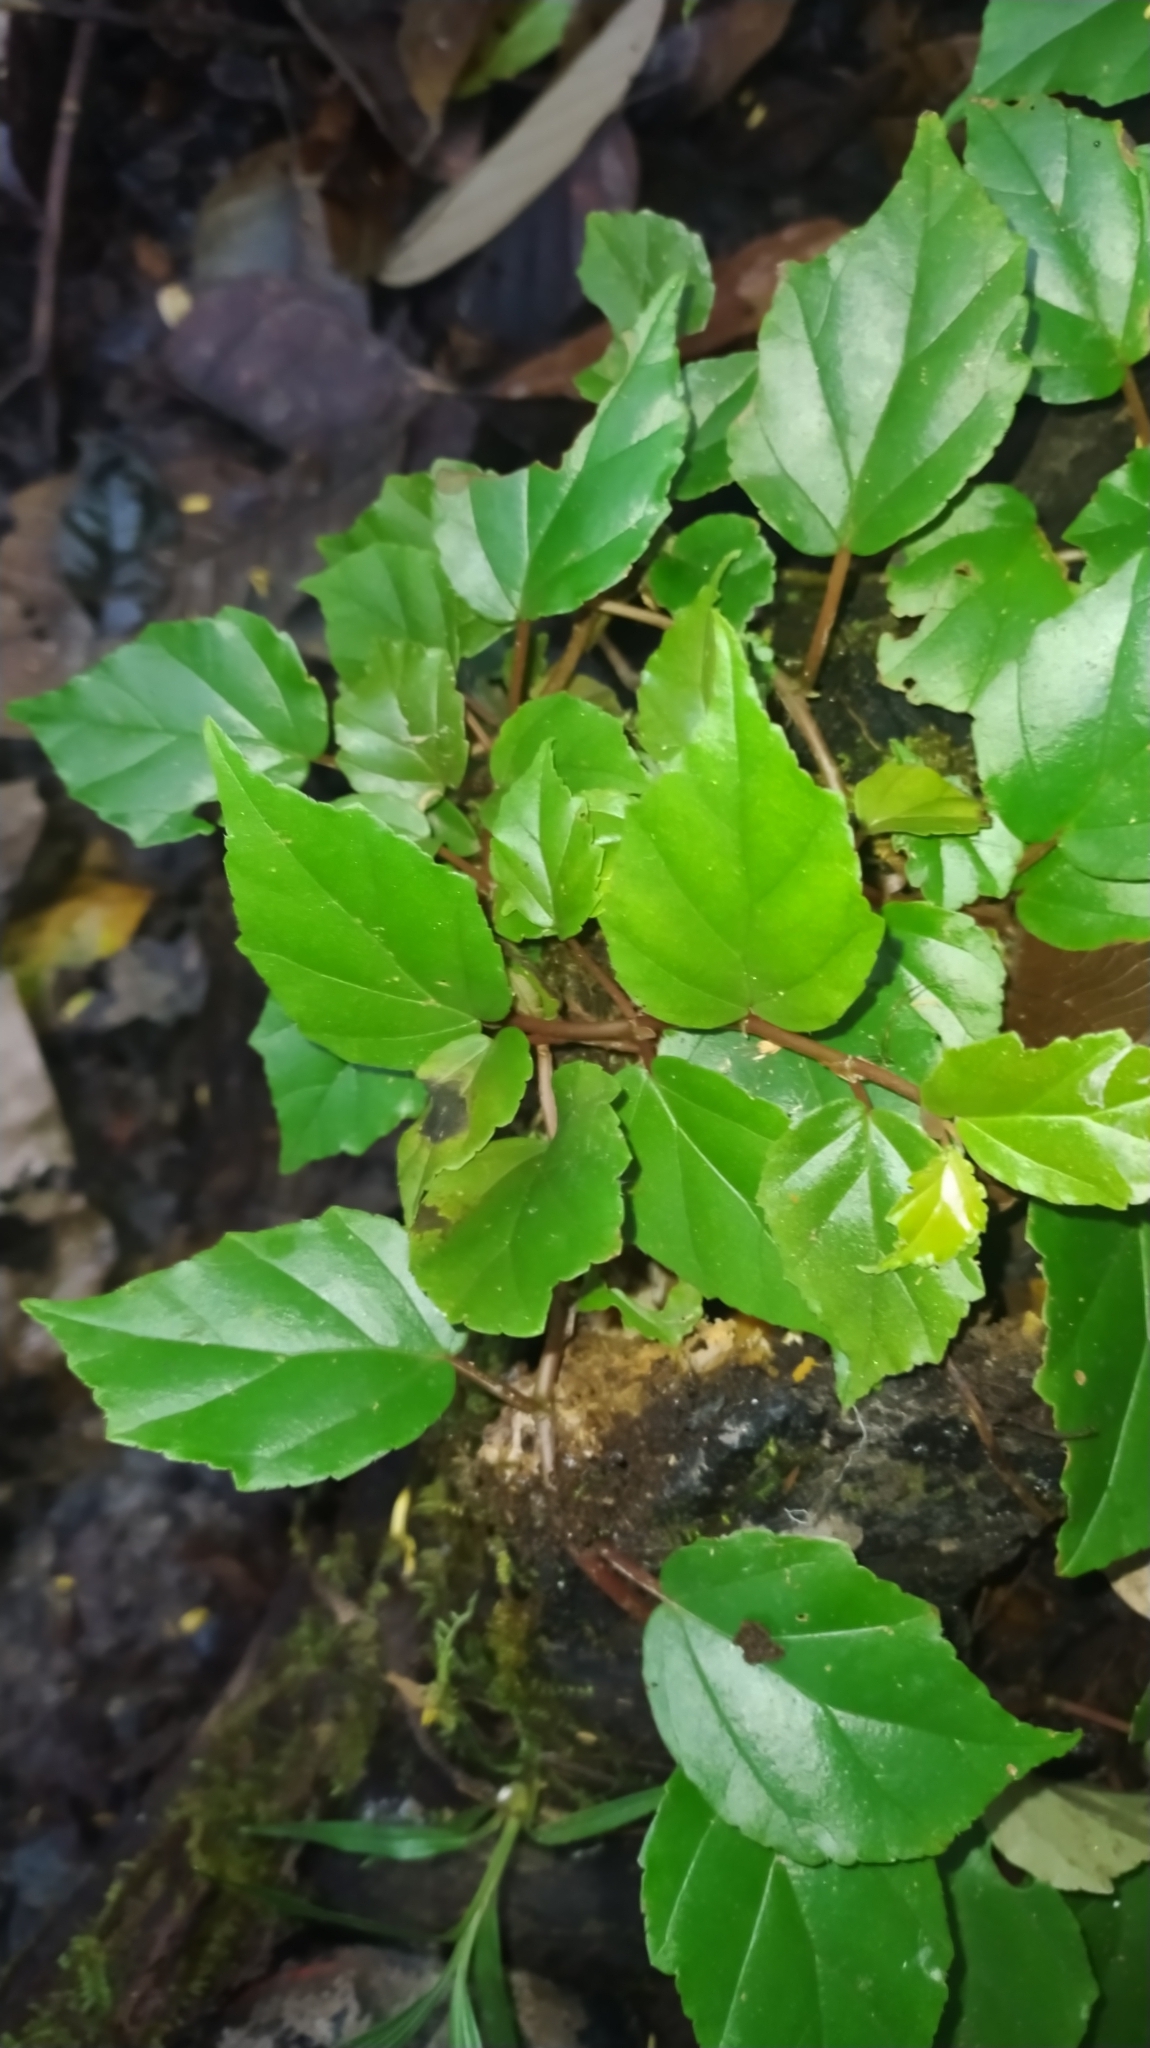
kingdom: Plantae
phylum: Tracheophyta
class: Magnoliopsida
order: Cucurbitales
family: Begoniaceae
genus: Begonia
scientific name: Begonia glabra
